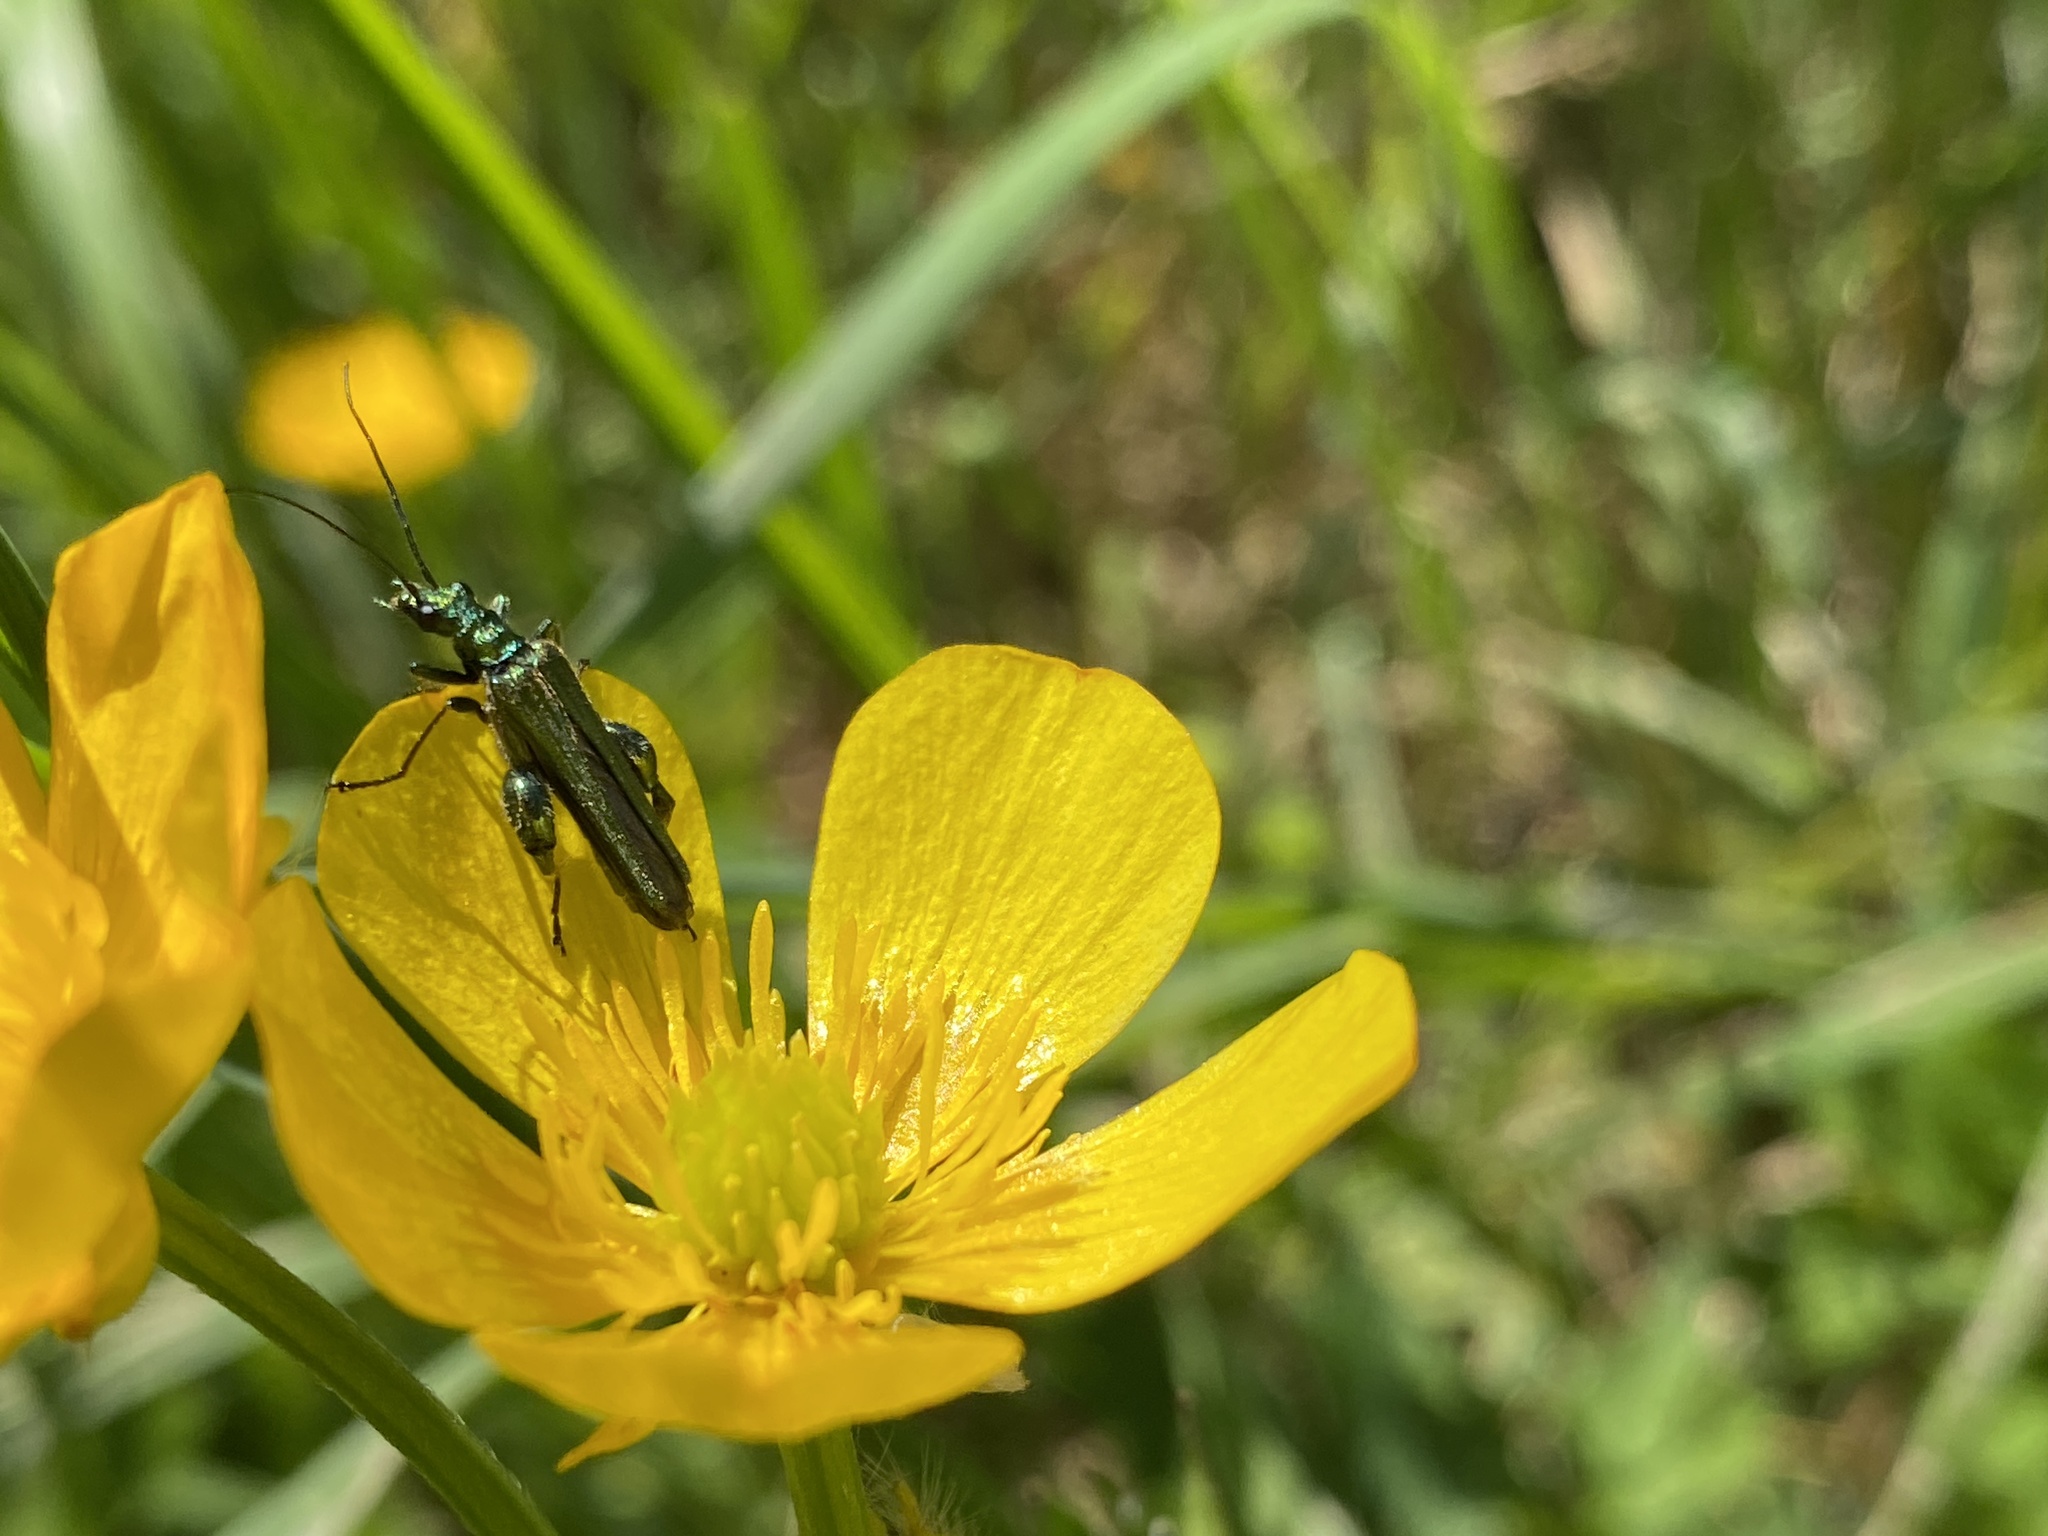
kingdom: Animalia
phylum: Arthropoda
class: Insecta
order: Coleoptera
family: Oedemeridae
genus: Oedemera
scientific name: Oedemera nobilis
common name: Swollen-thighed beetle
